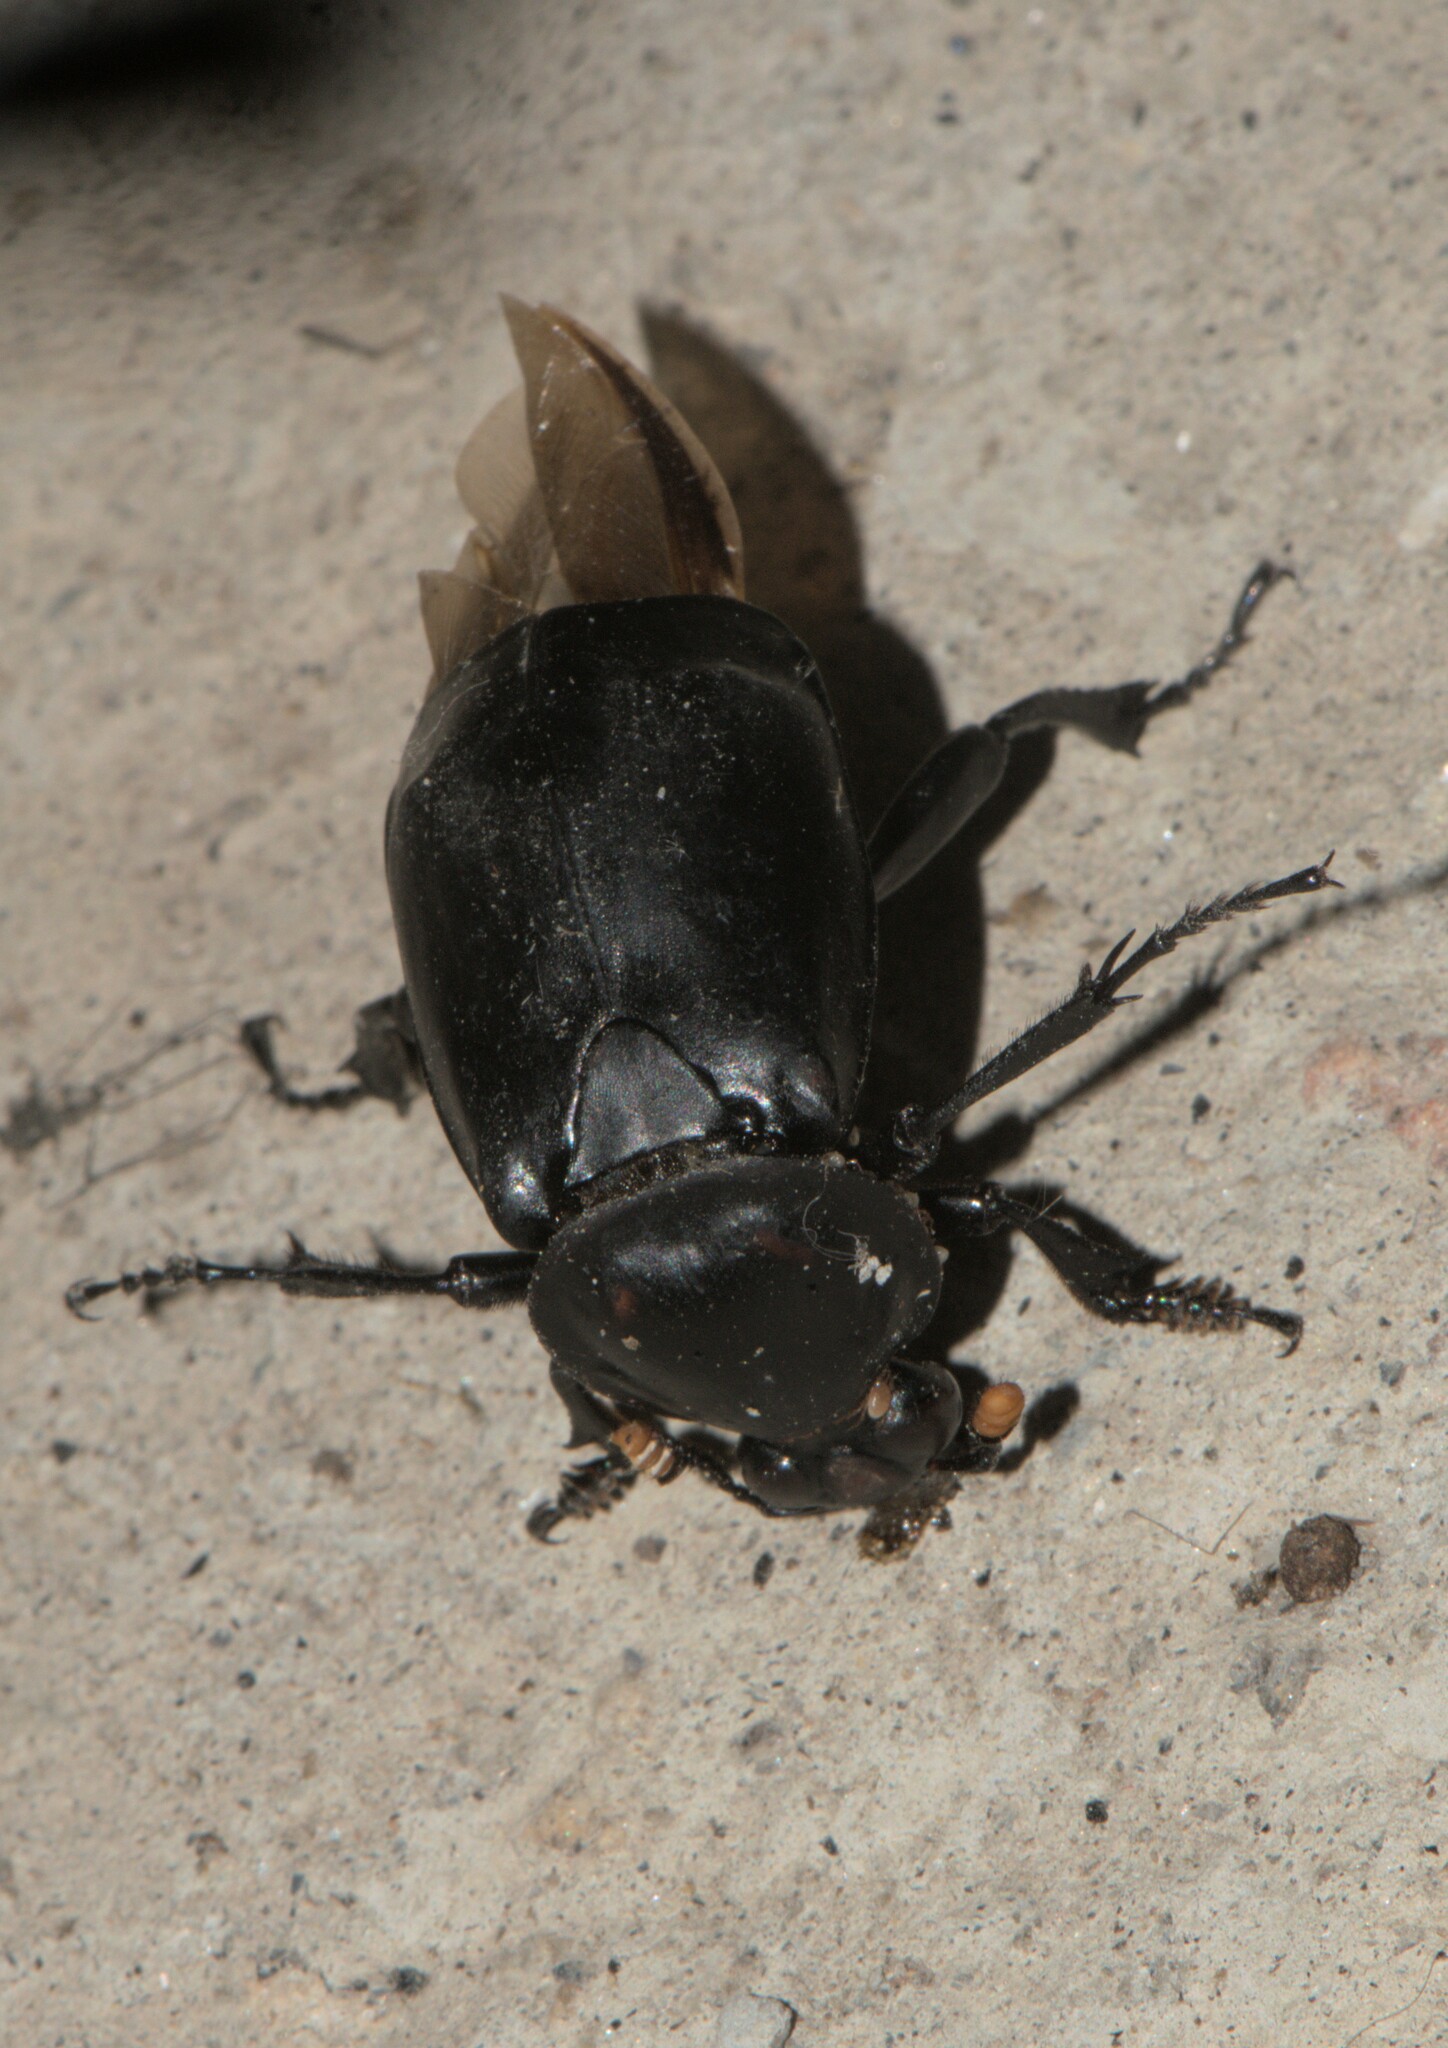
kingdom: Animalia
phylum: Arthropoda
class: Insecta
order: Coleoptera
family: Staphylinidae
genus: Nicrophorus
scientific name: Nicrophorus concolor
